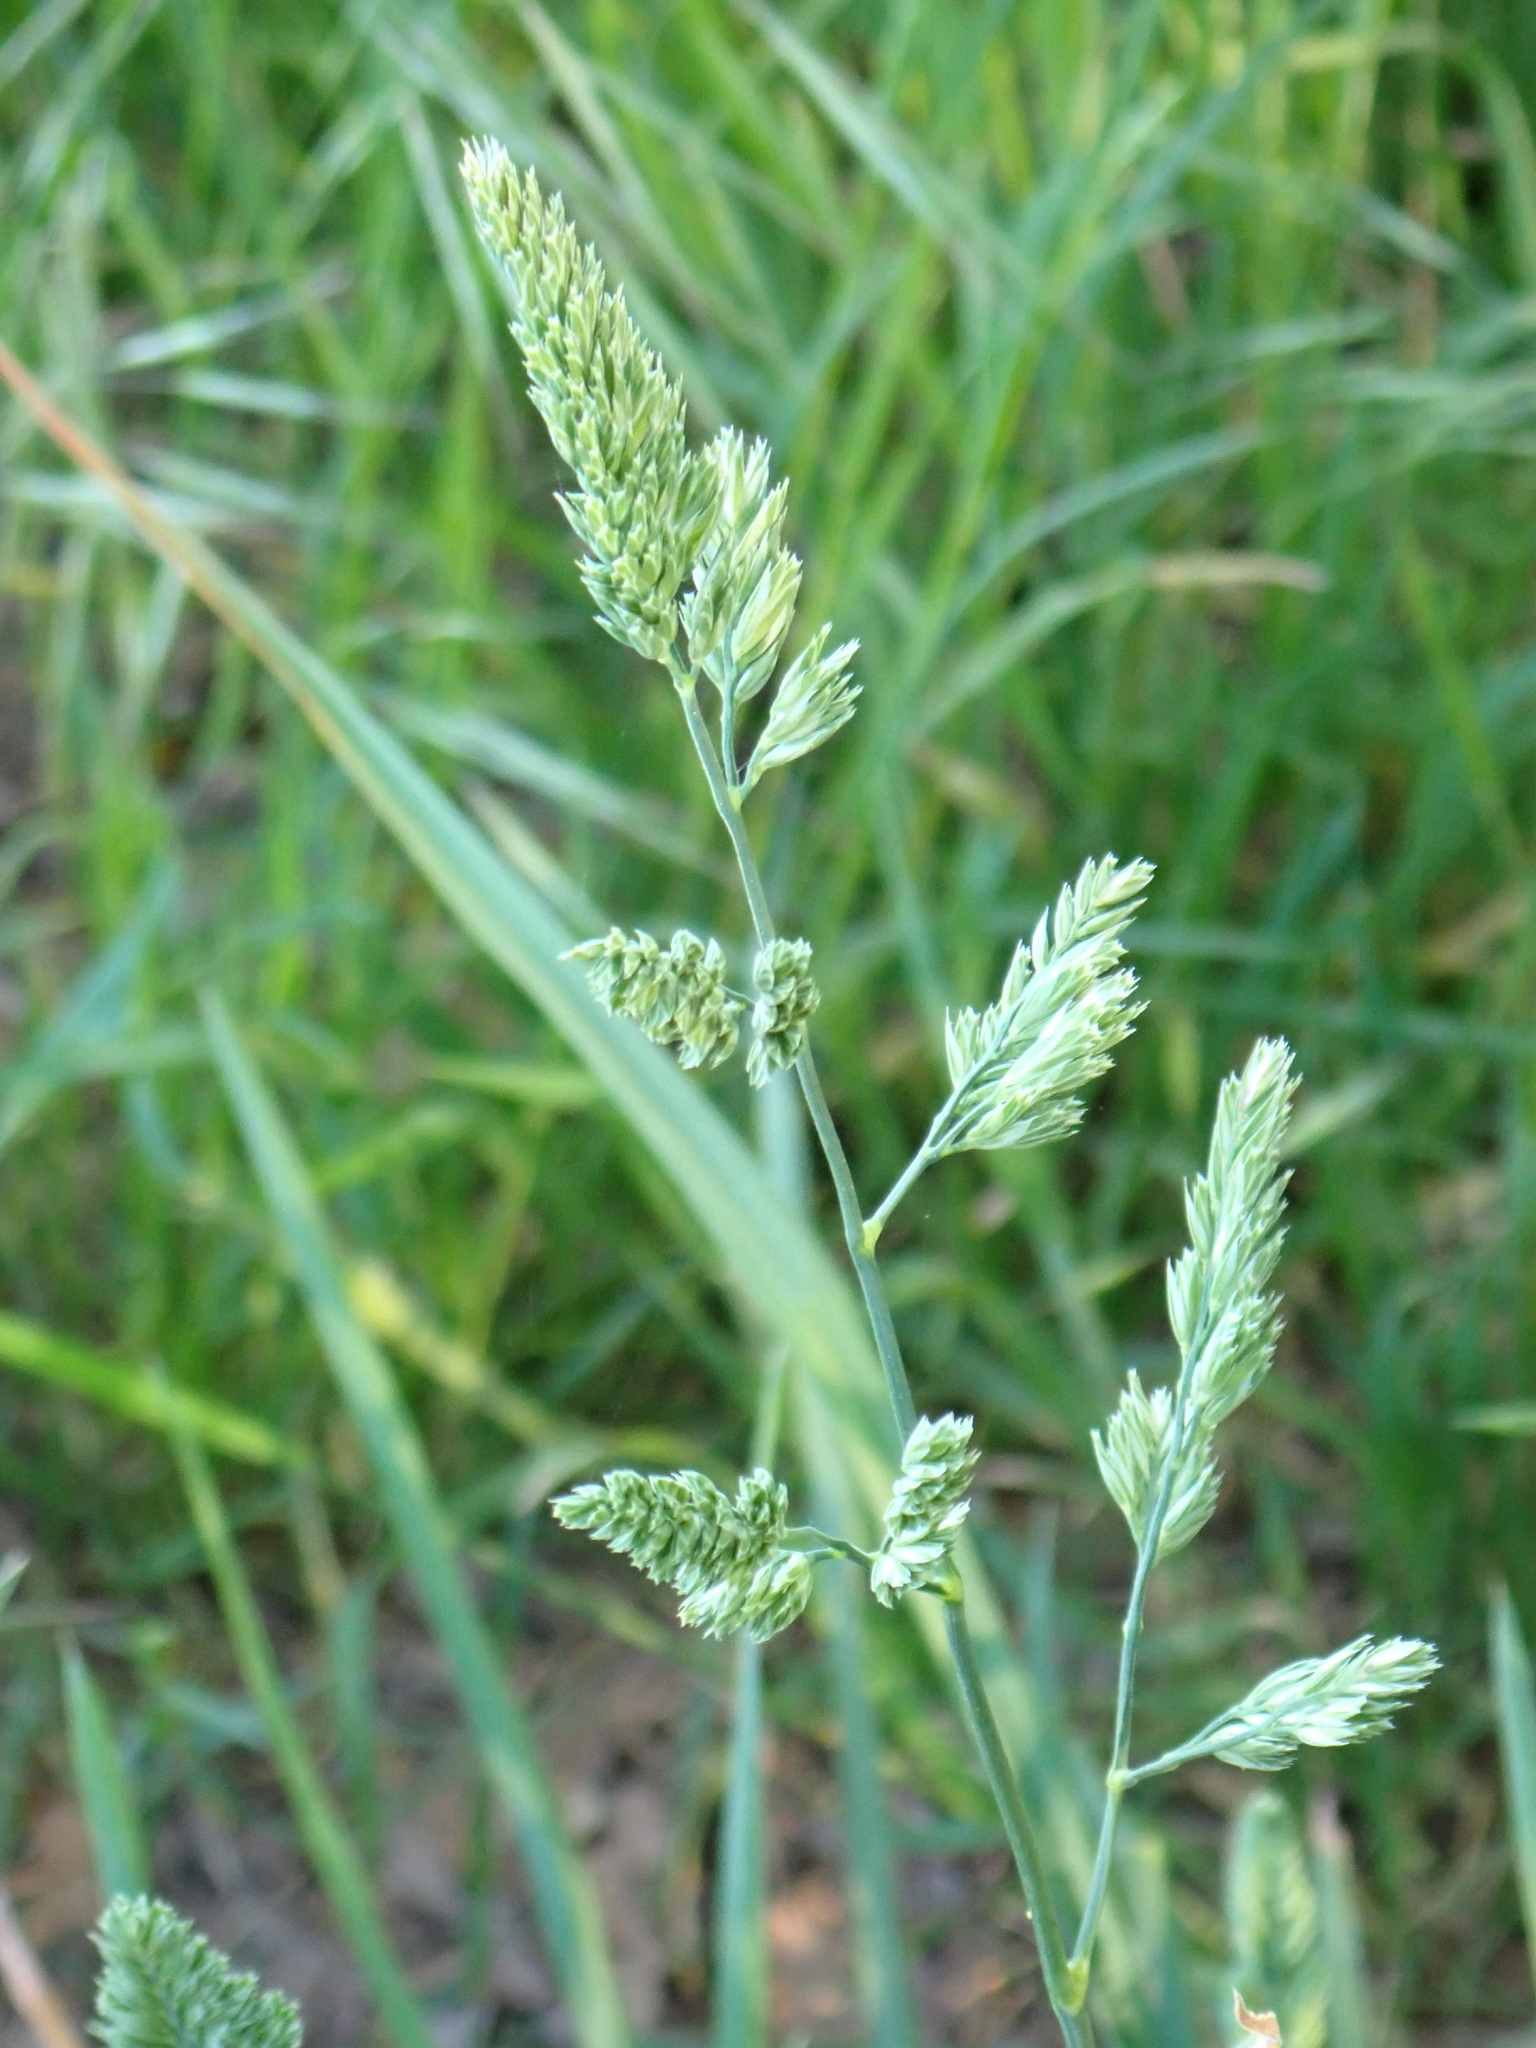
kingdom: Plantae
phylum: Tracheophyta
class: Liliopsida
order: Poales
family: Poaceae
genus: Dactylis
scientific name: Dactylis glomerata
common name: Orchardgrass
